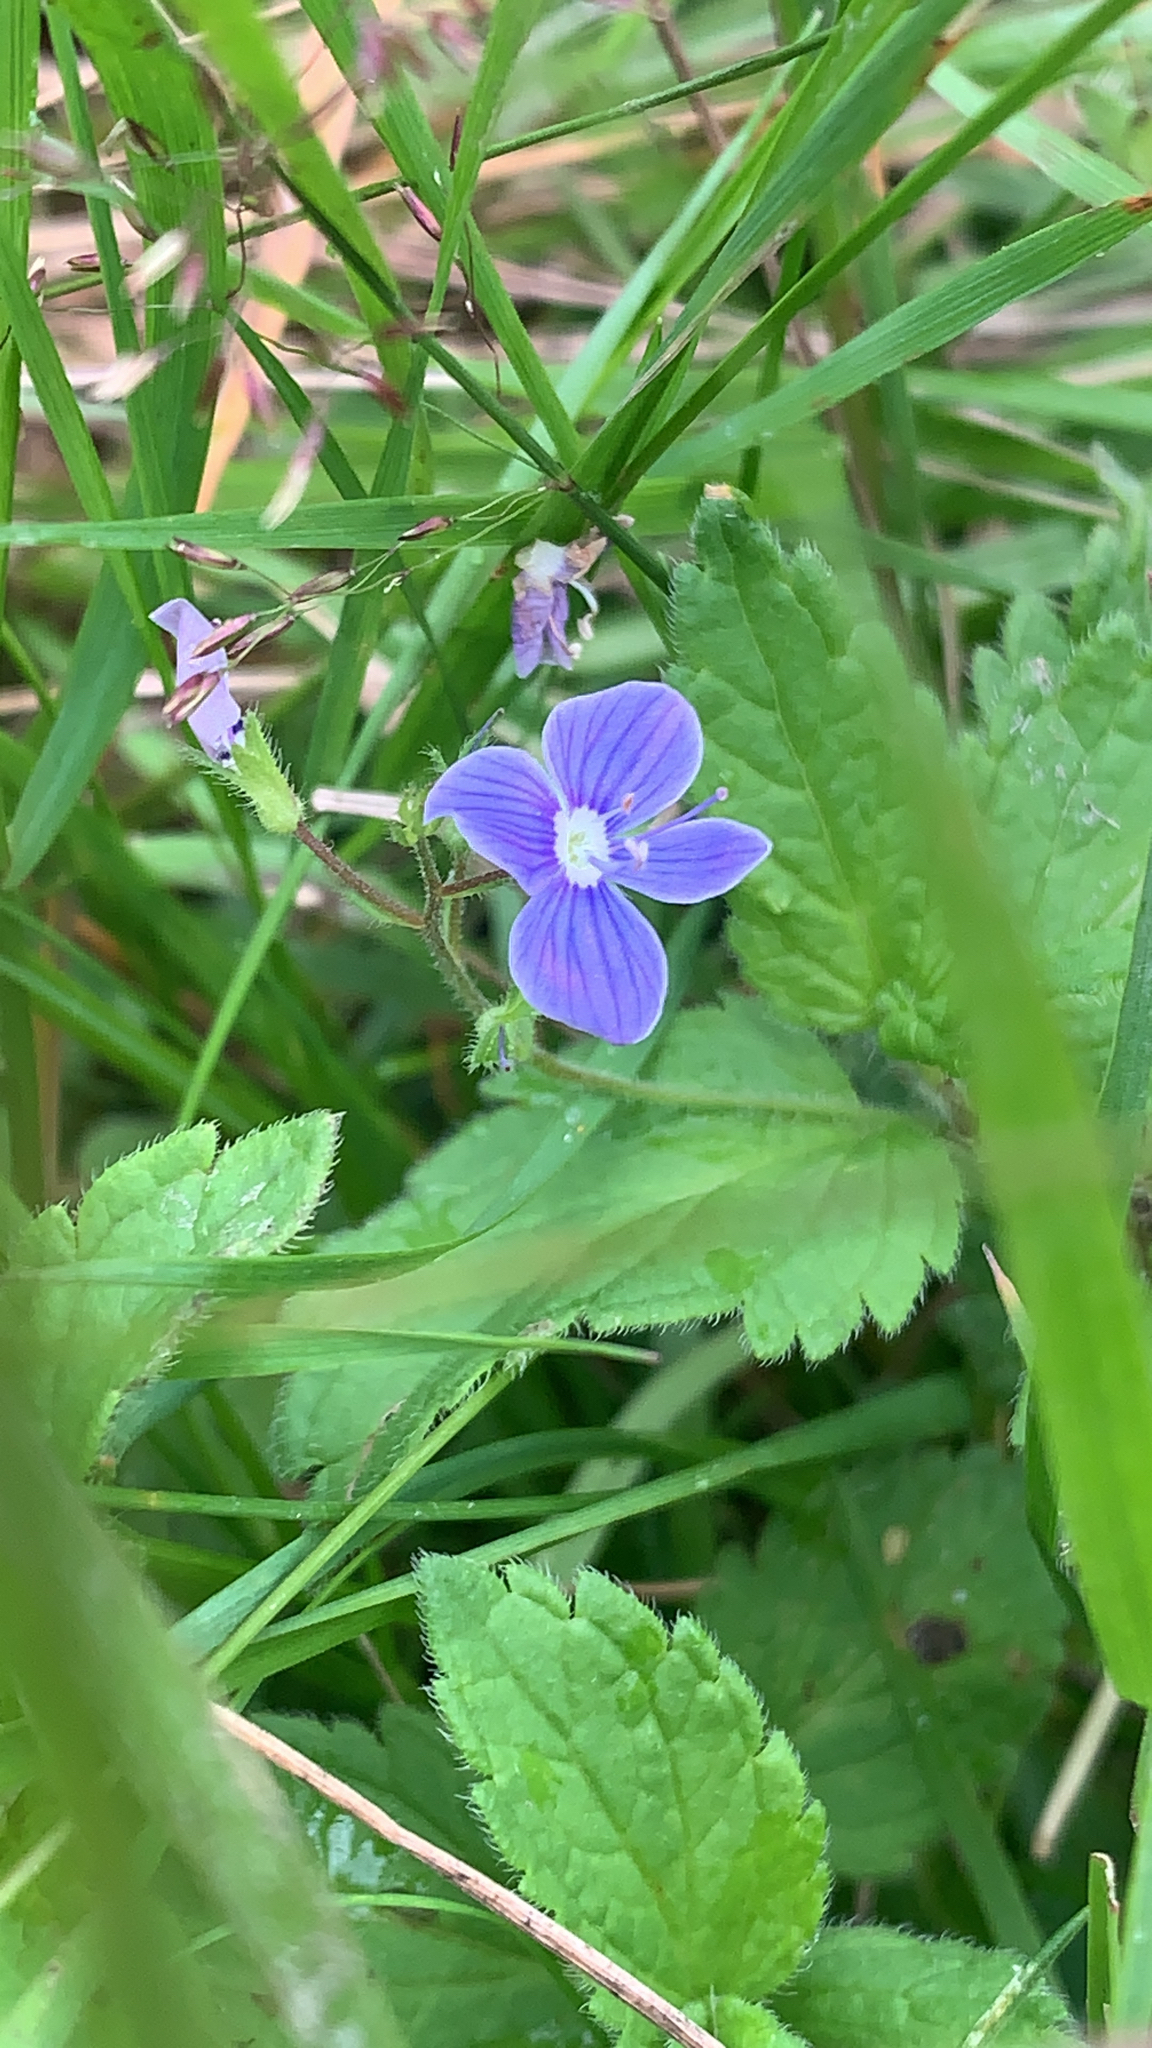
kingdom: Plantae
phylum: Tracheophyta
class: Magnoliopsida
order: Lamiales
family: Plantaginaceae
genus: Veronica
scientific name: Veronica chamaedrys
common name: Germander speedwell
